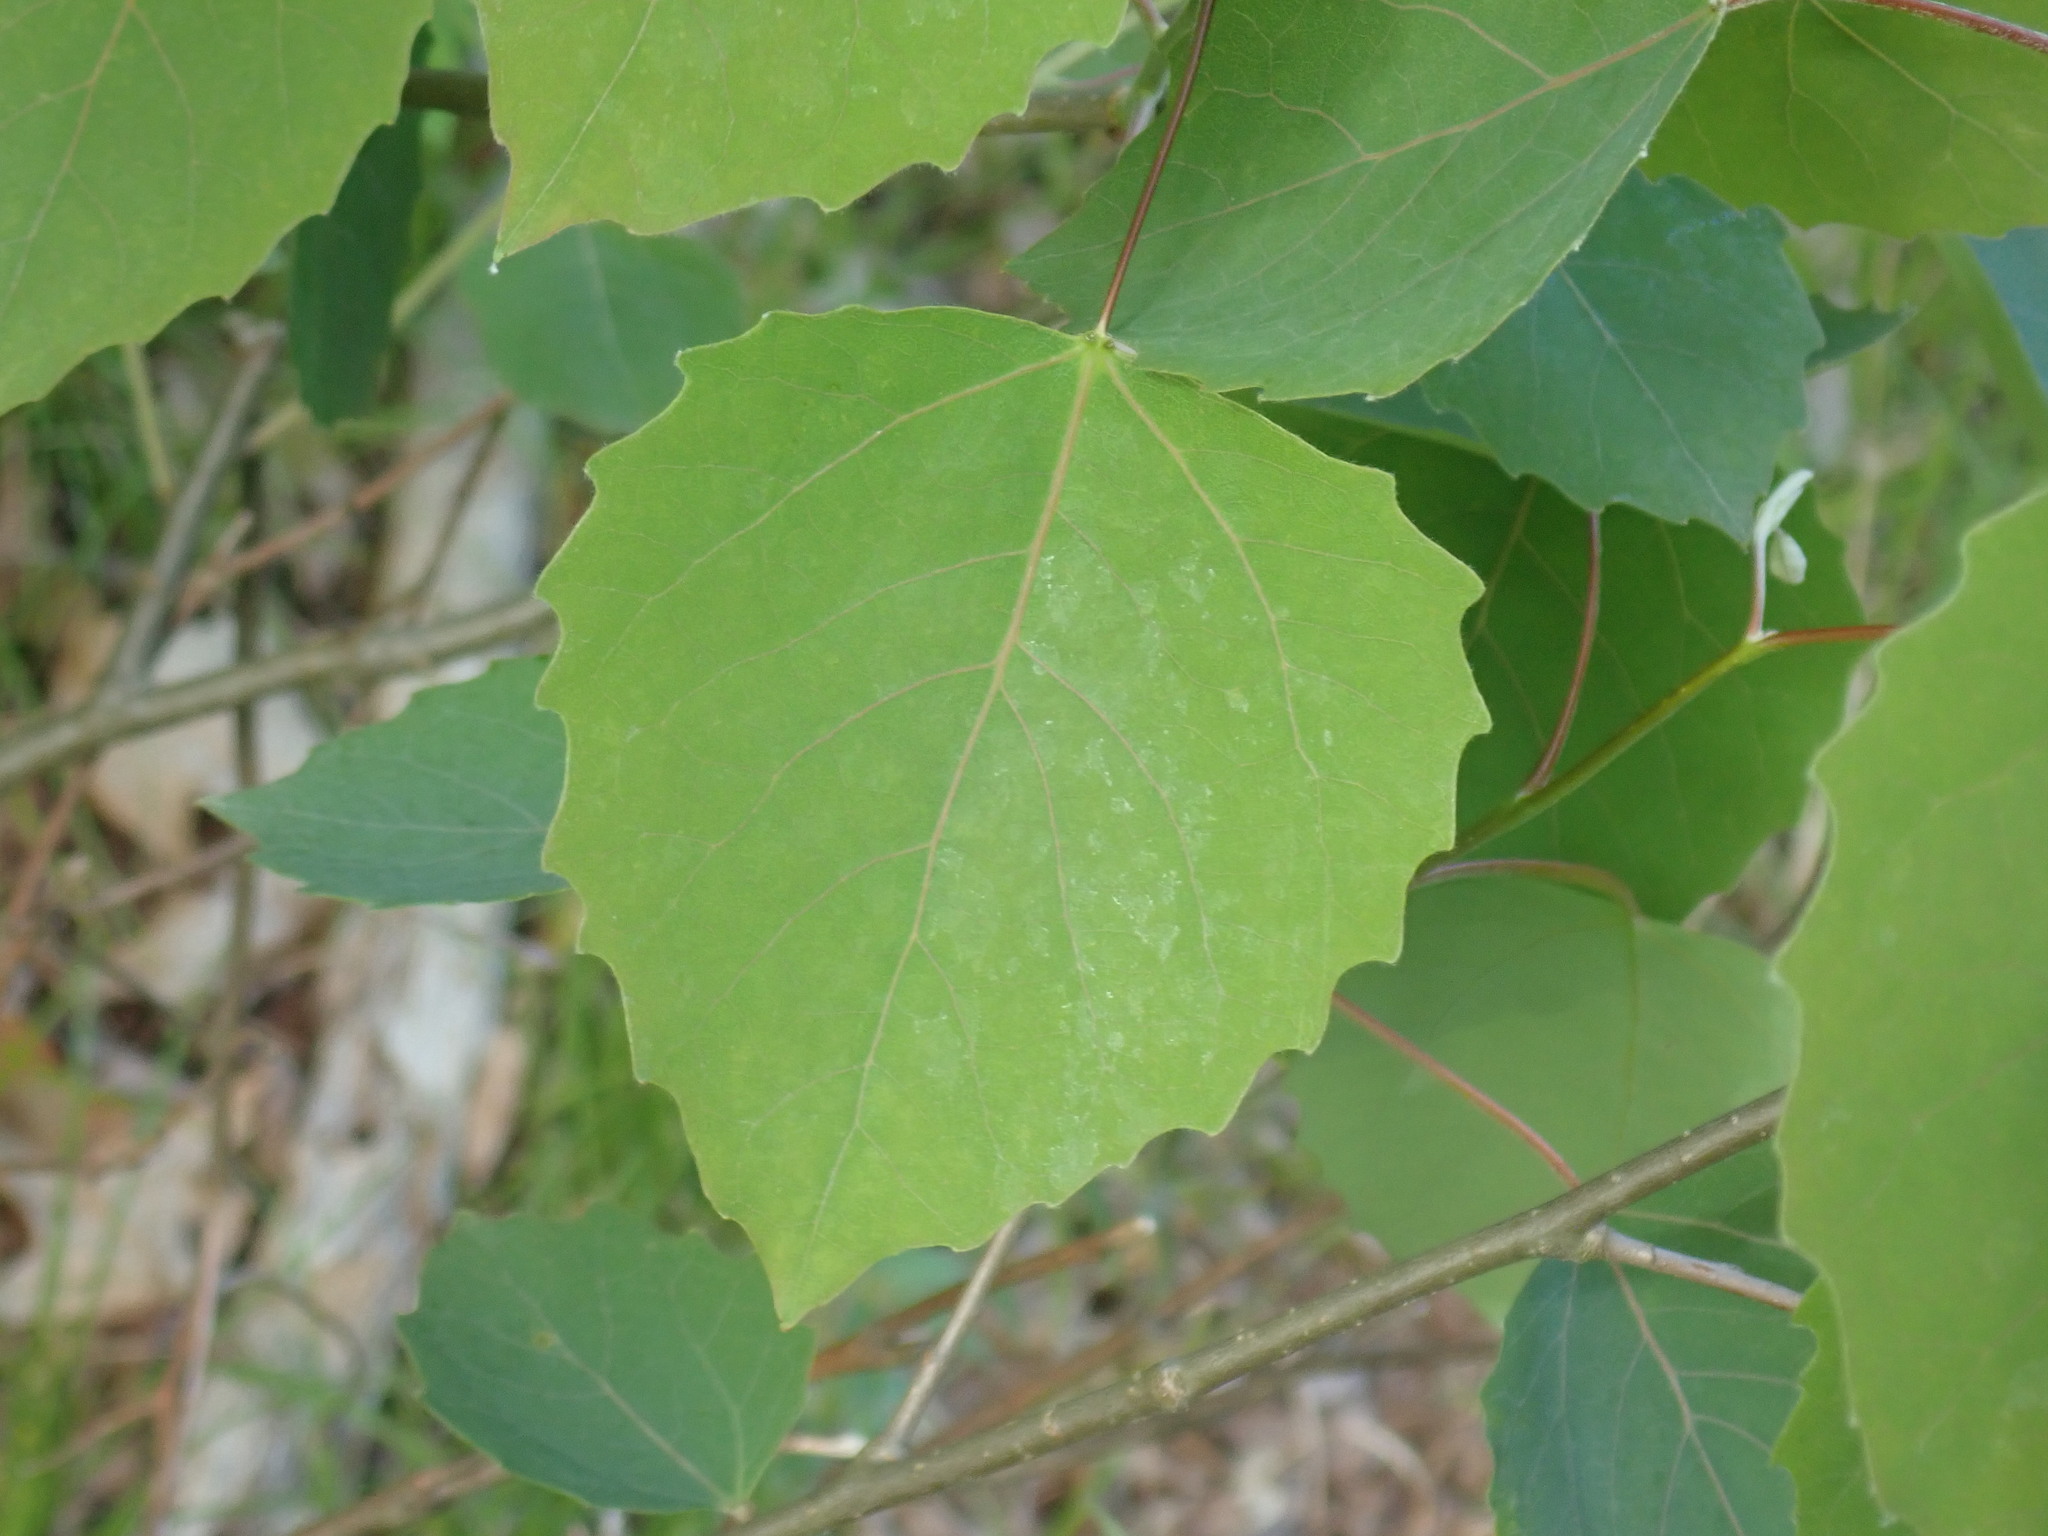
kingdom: Plantae
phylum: Tracheophyta
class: Magnoliopsida
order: Malpighiales
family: Salicaceae
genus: Populus
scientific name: Populus grandidentata
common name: Bigtooth aspen
